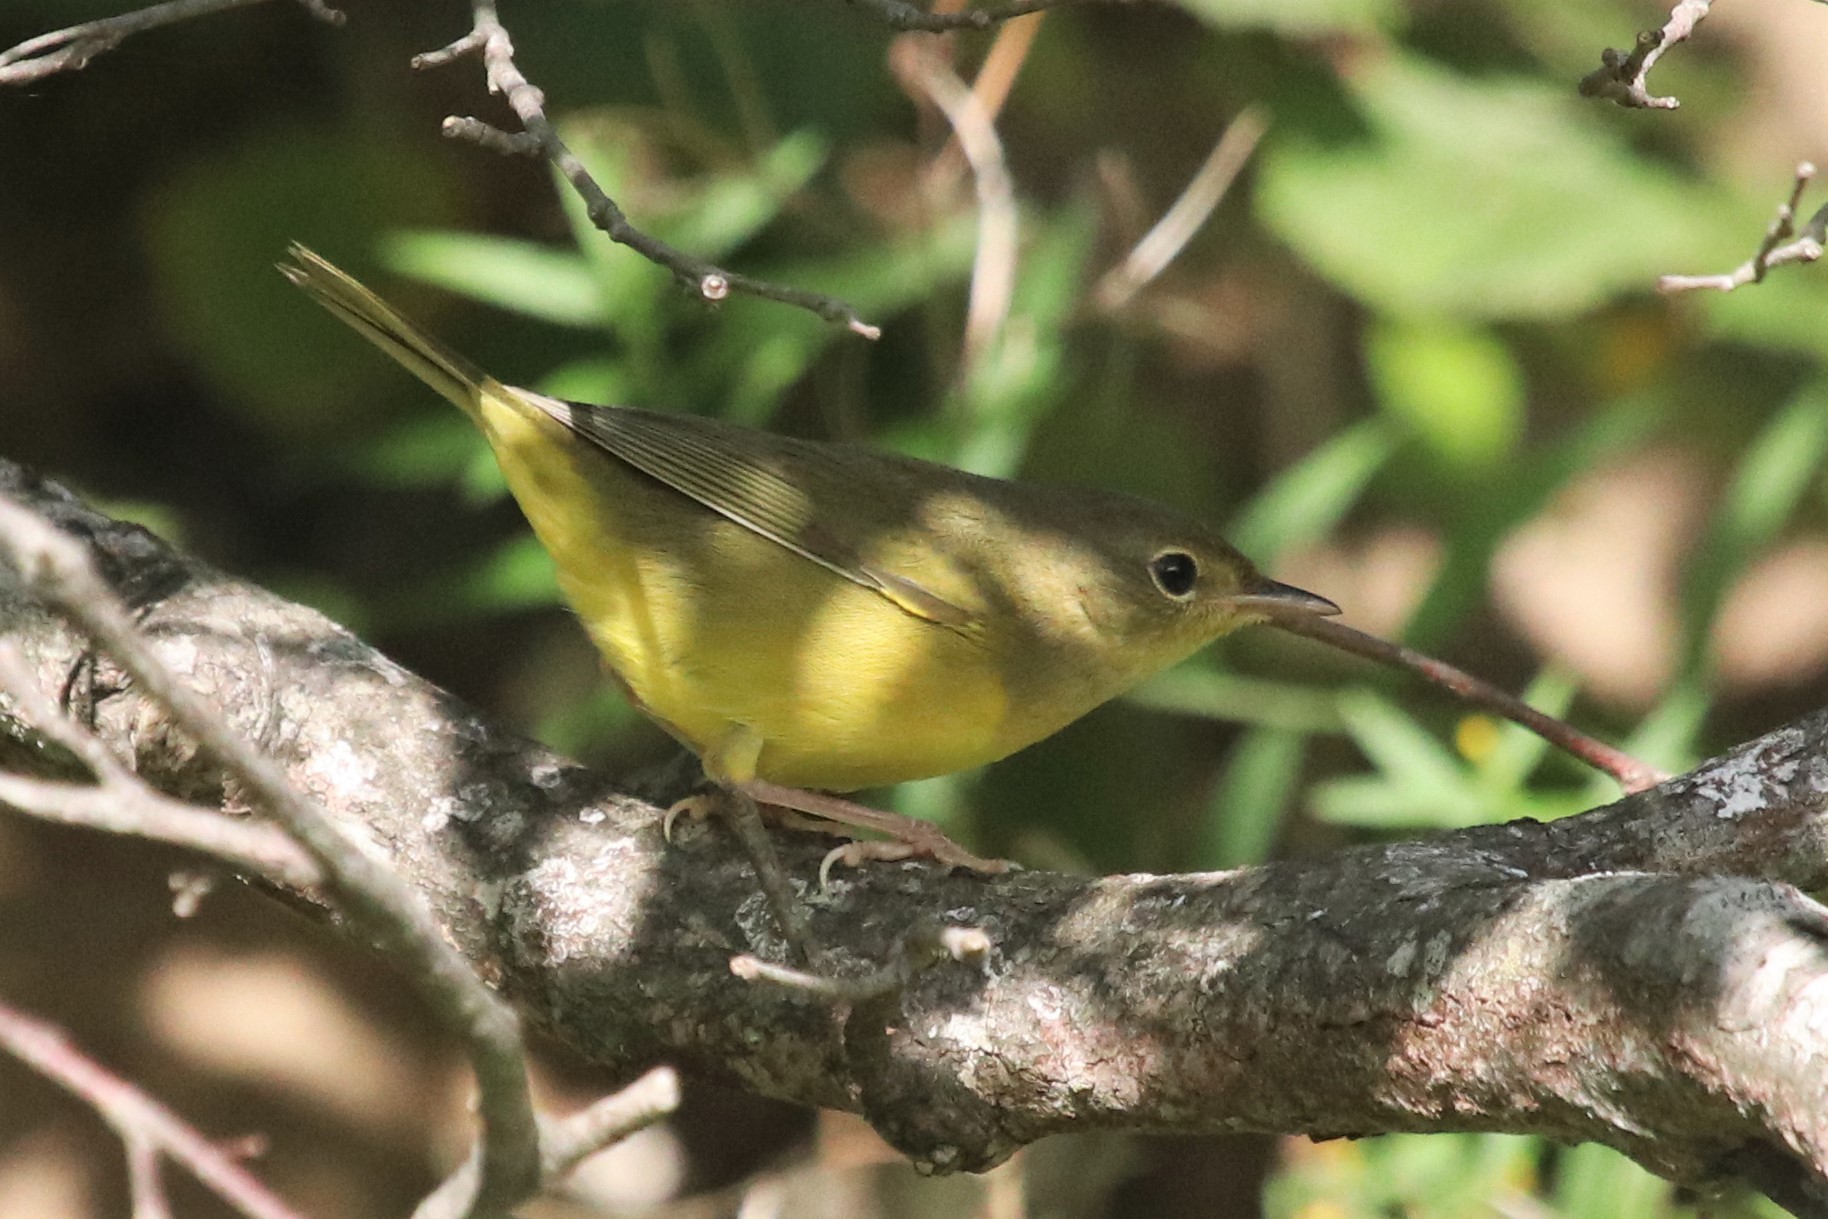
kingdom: Animalia
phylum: Chordata
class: Aves
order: Passeriformes
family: Parulidae
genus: Geothlypis
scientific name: Geothlypis philadelphia
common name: Mourning warbler
